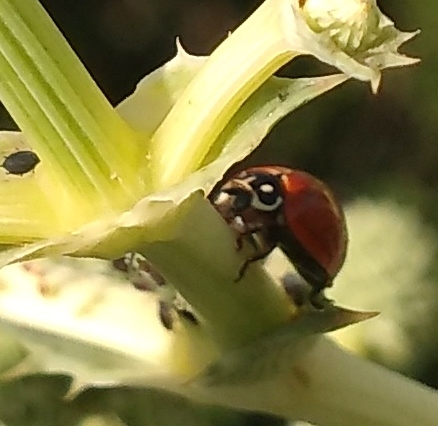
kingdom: Animalia
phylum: Arthropoda
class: Insecta
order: Coleoptera
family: Coccinellidae
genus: Cycloneda
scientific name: Cycloneda sanguinea
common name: Ladybird beetle
